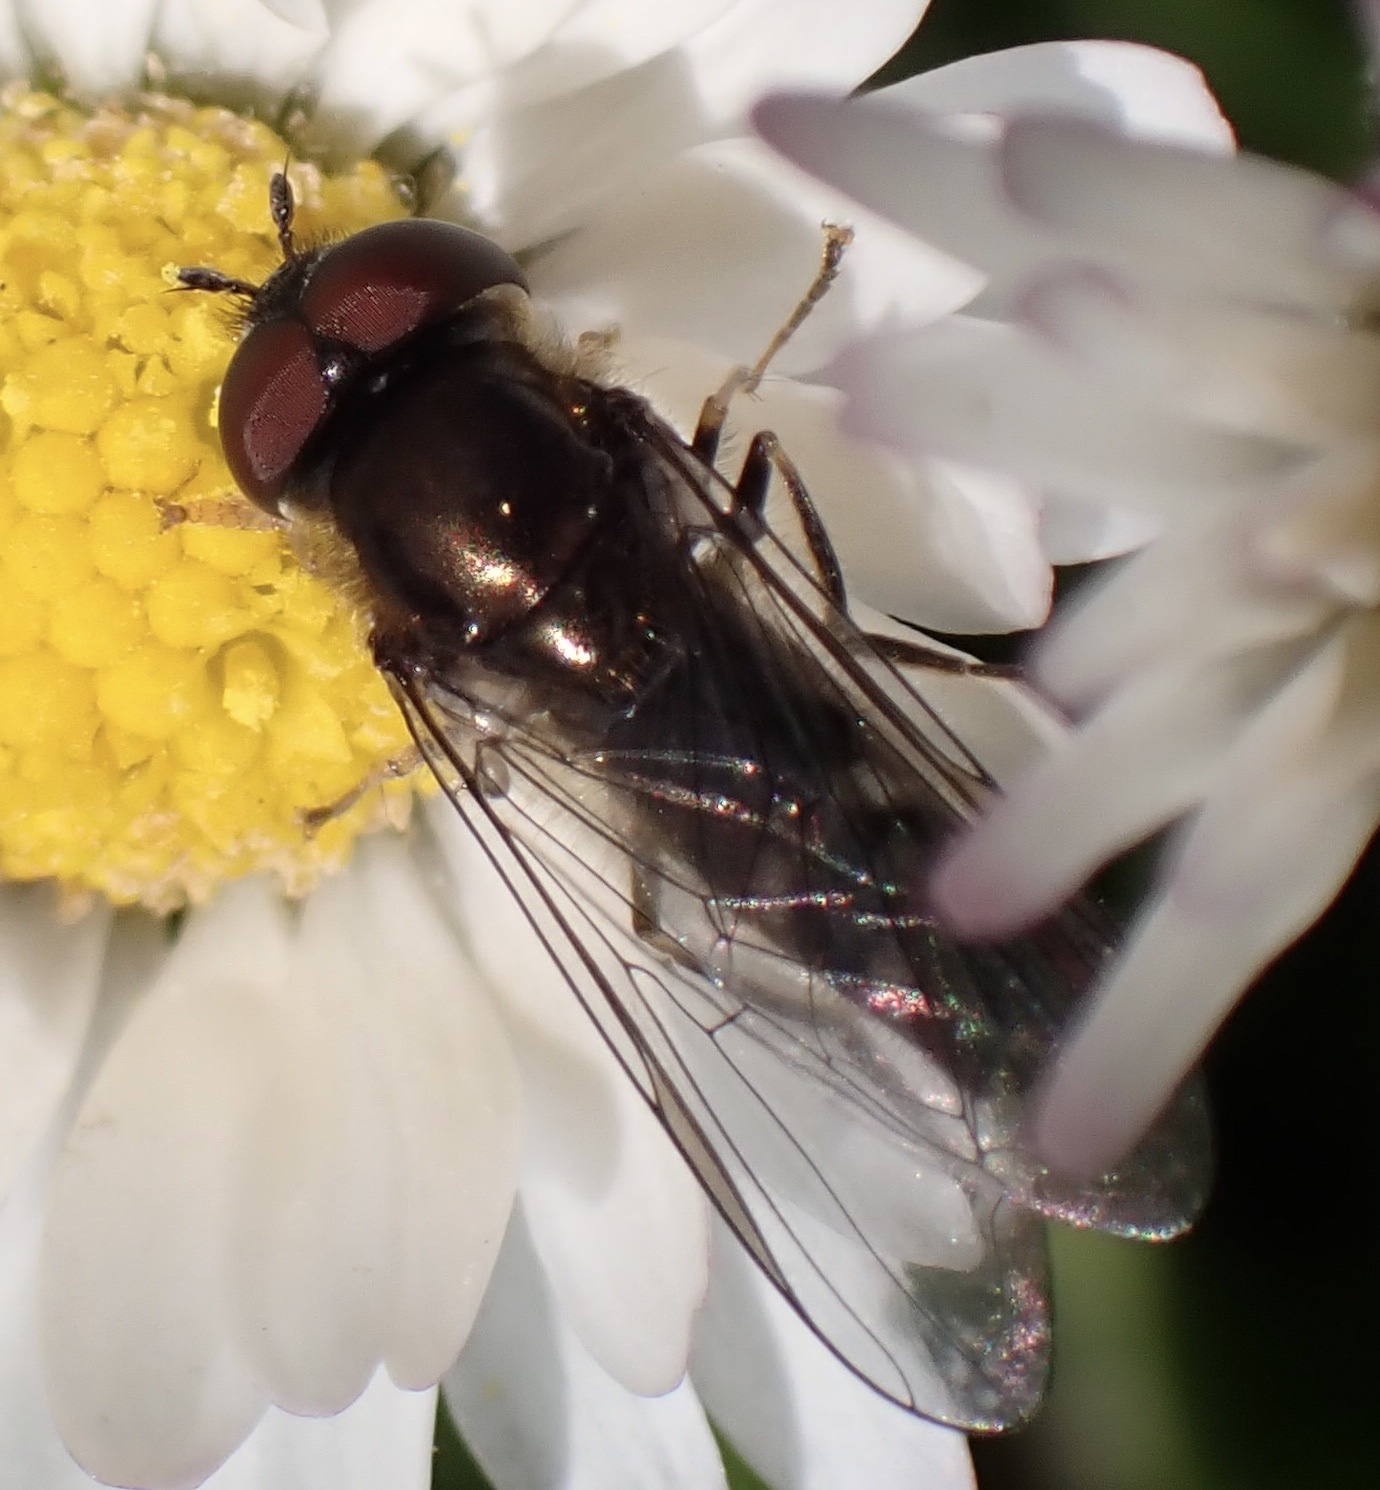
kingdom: Animalia
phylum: Arthropoda
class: Insecta
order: Diptera
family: Syrphidae
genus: Platycheirus
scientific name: Platycheirus albimanus
